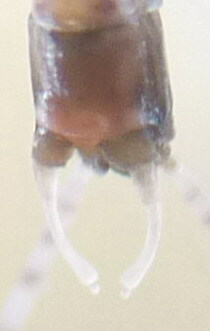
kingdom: Animalia
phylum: Arthropoda
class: Insecta
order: Ephemeroptera
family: Baetidae
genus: Cloeon
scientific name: Cloeon dipterum
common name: Pond olive
